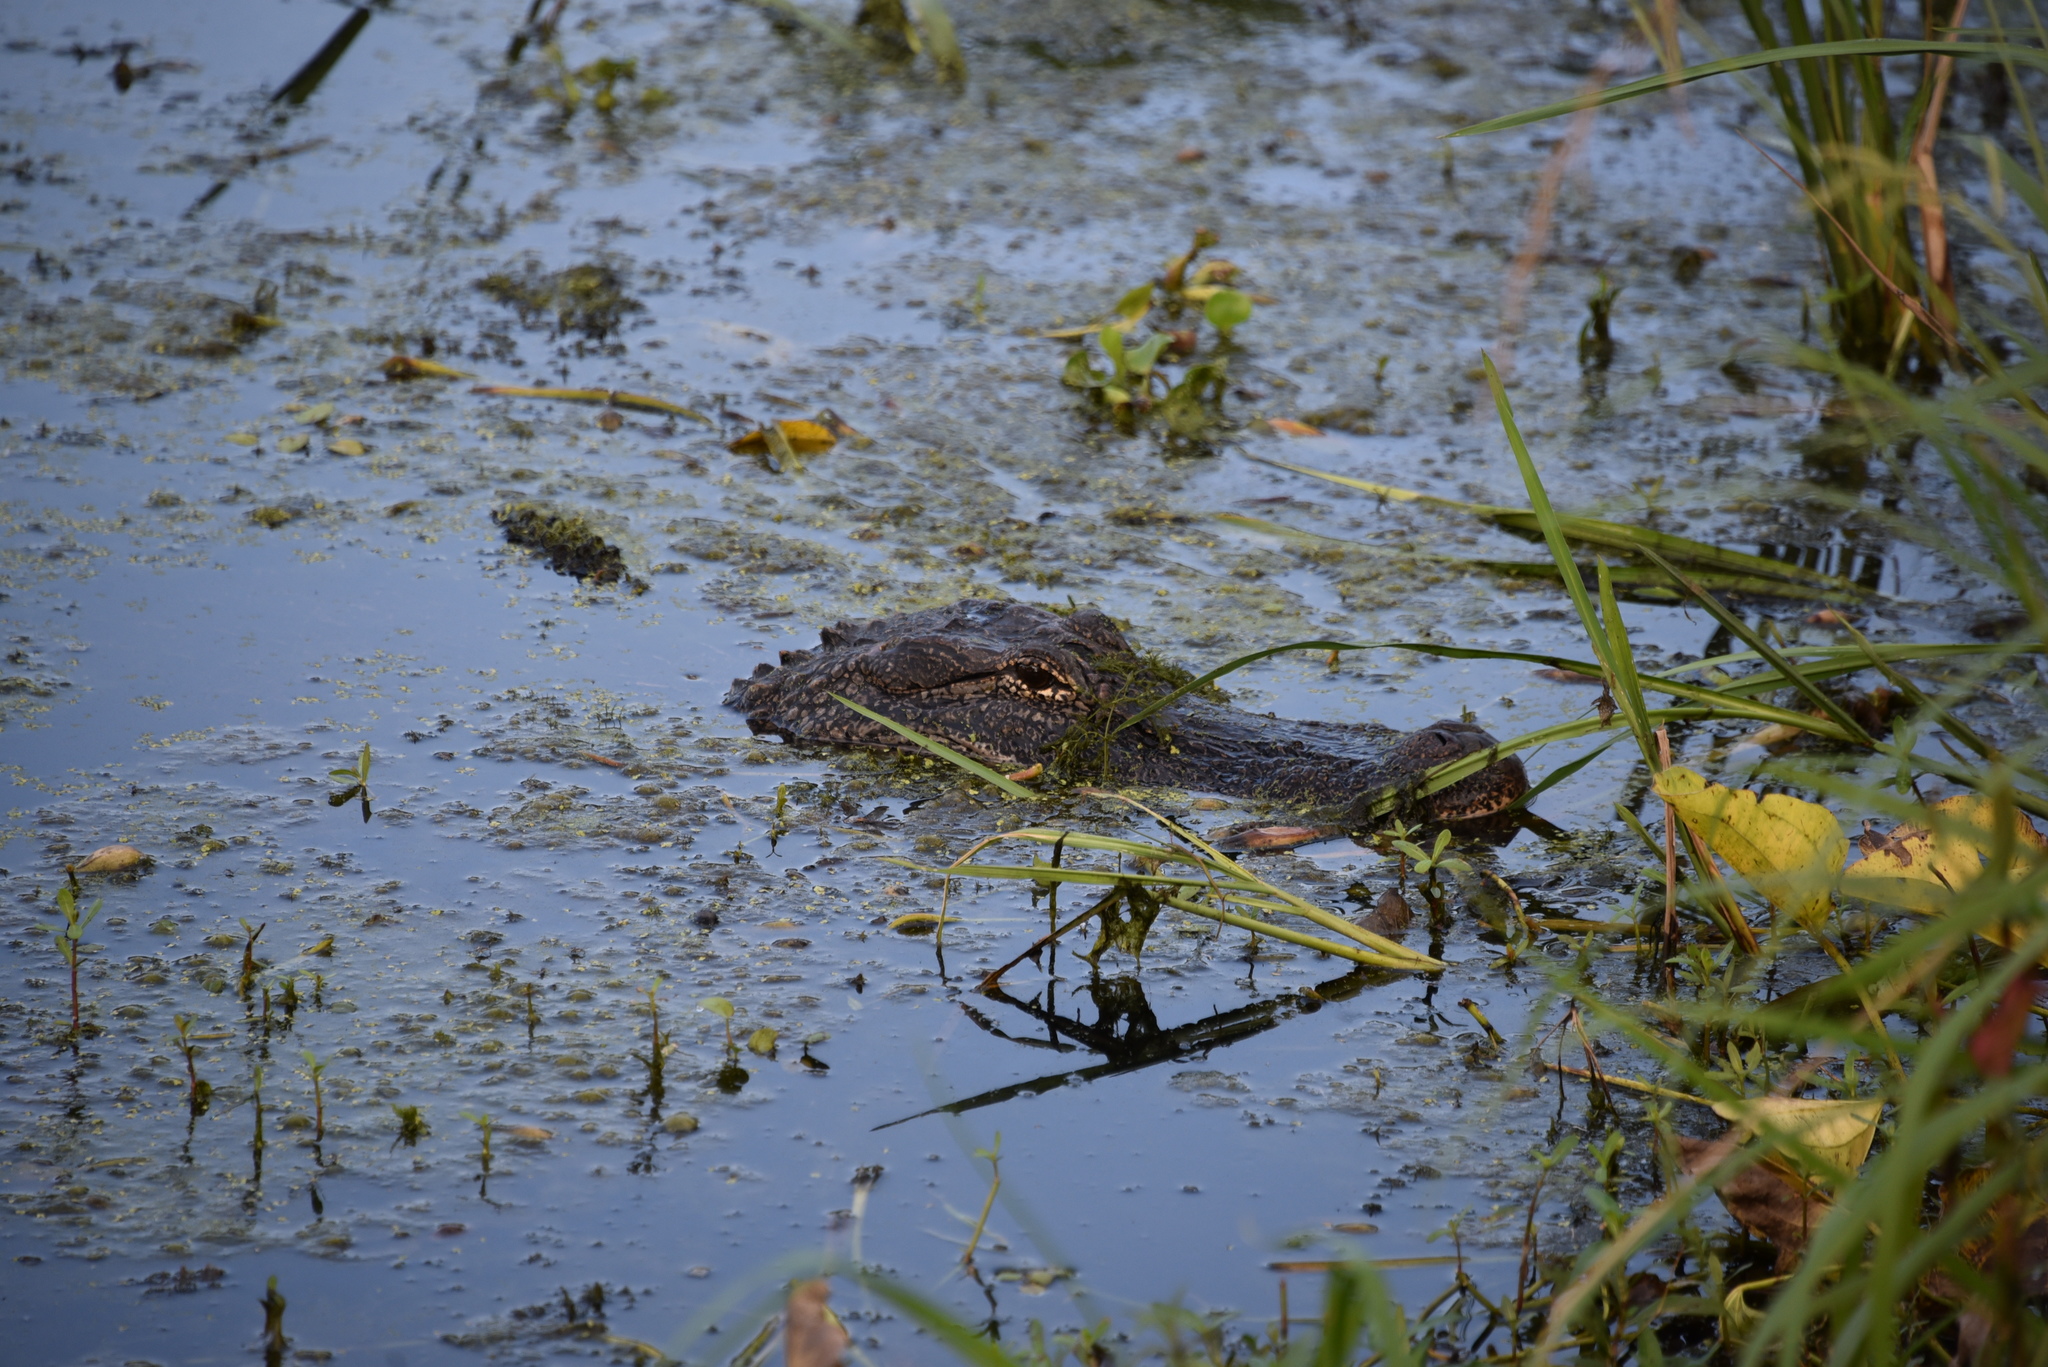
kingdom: Animalia
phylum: Chordata
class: Crocodylia
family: Alligatoridae
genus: Alligator
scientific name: Alligator mississippiensis
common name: American alligator
